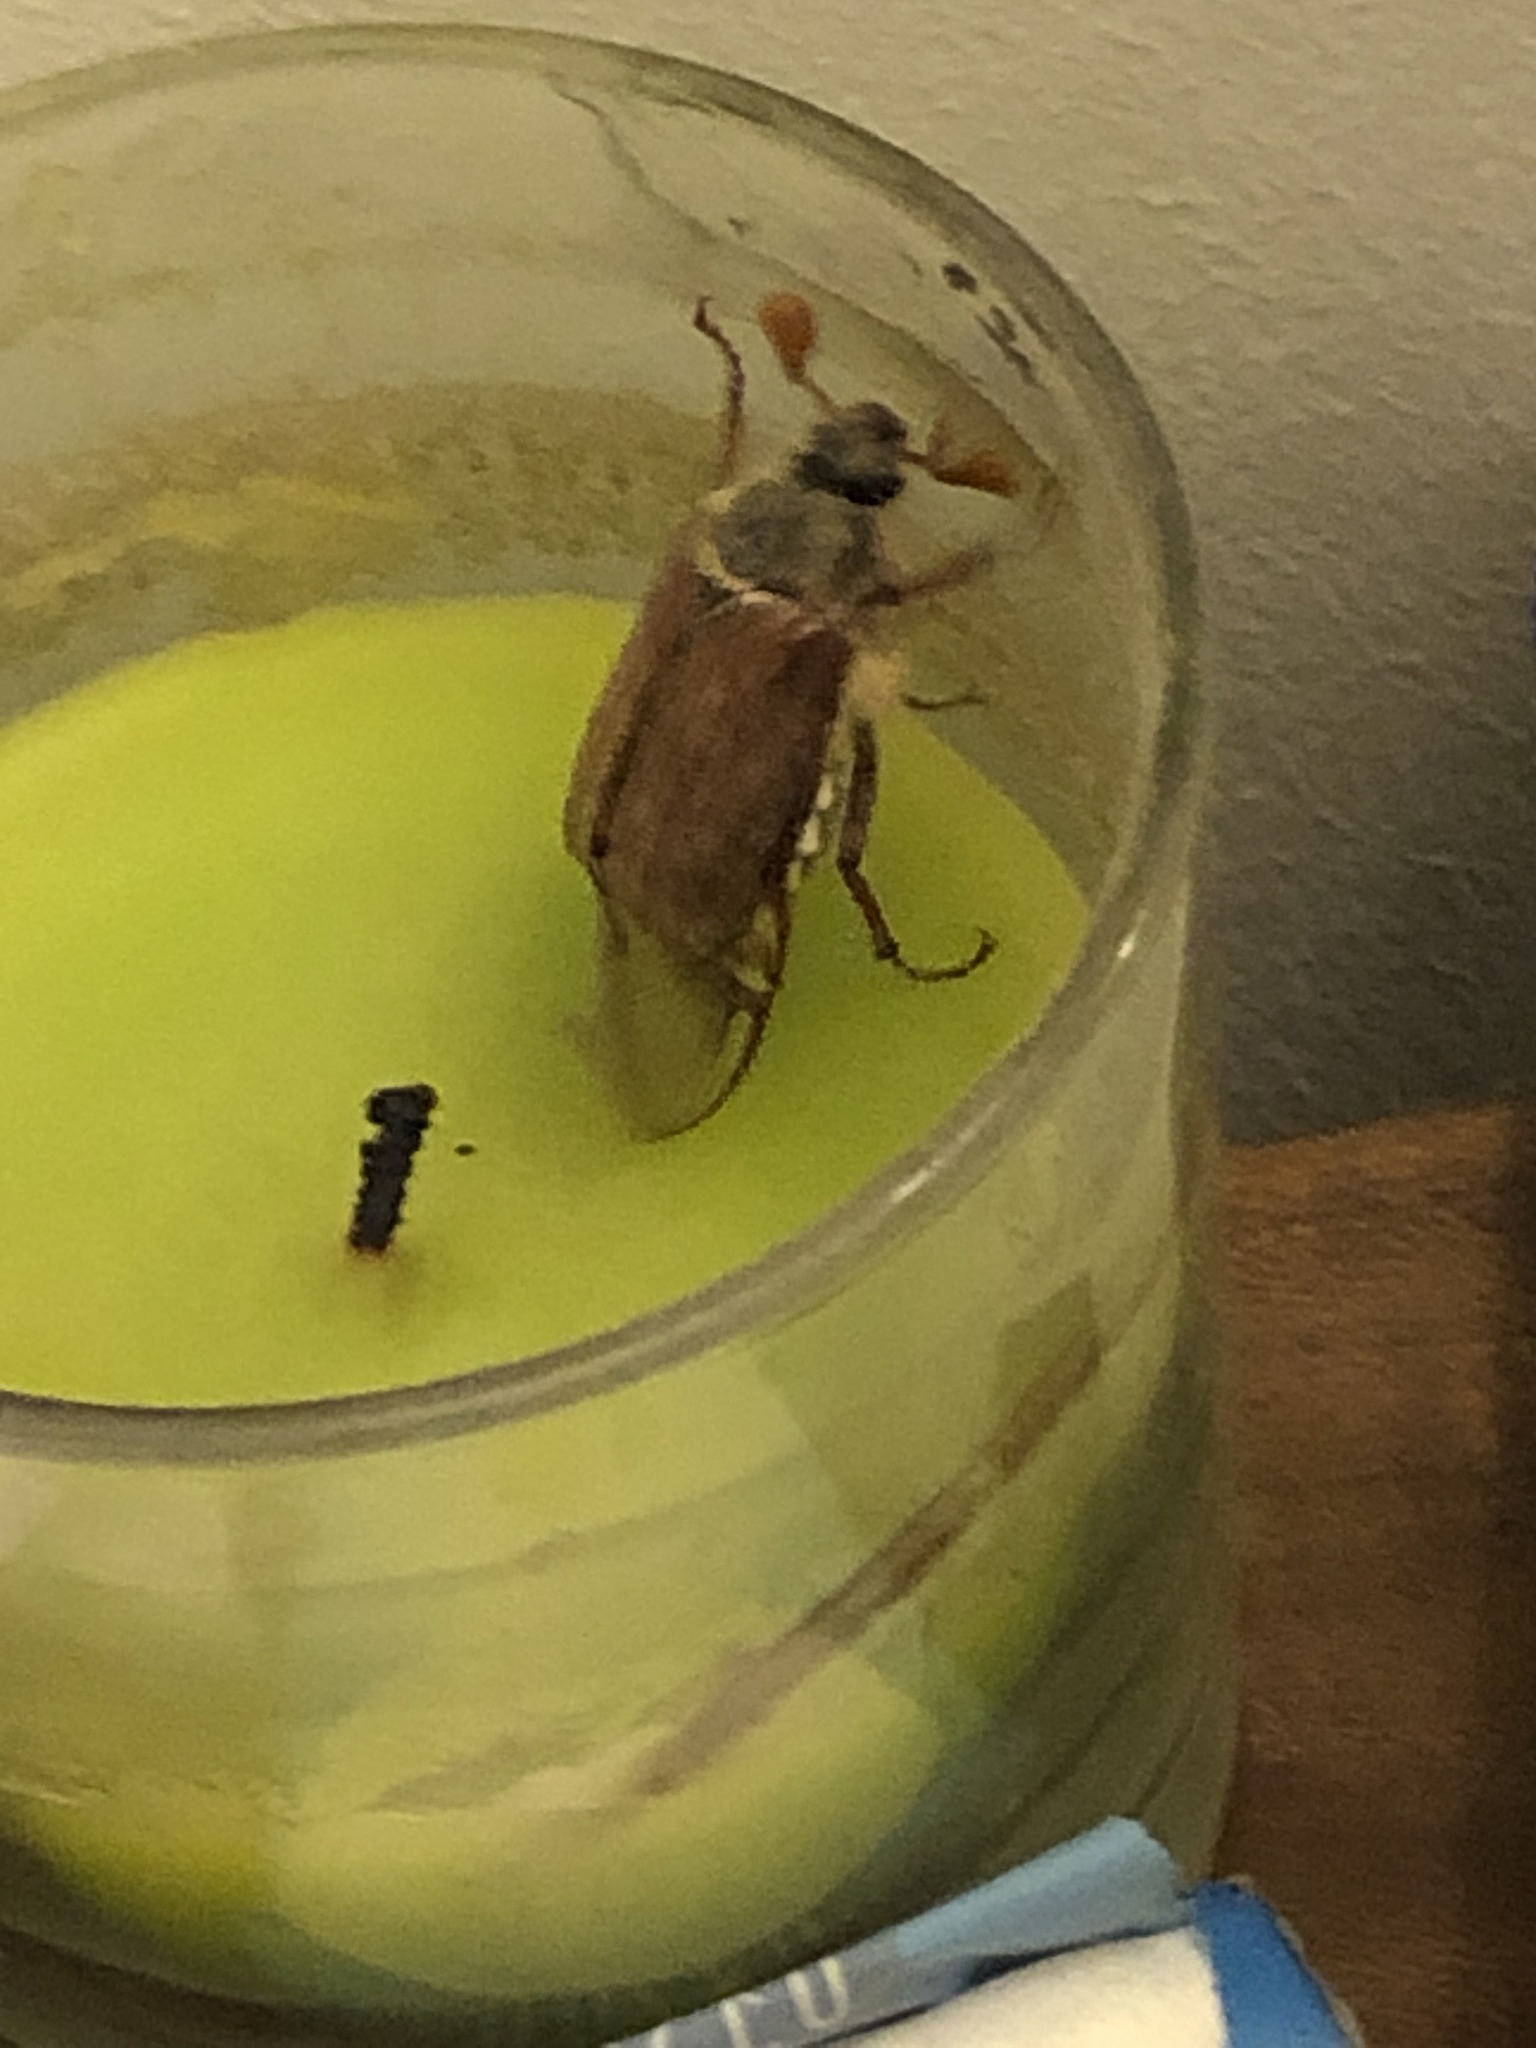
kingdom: Animalia
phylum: Arthropoda
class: Insecta
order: Coleoptera
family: Scarabaeidae
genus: Melolontha
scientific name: Melolontha melolontha
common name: Cockchafer maybeetle
